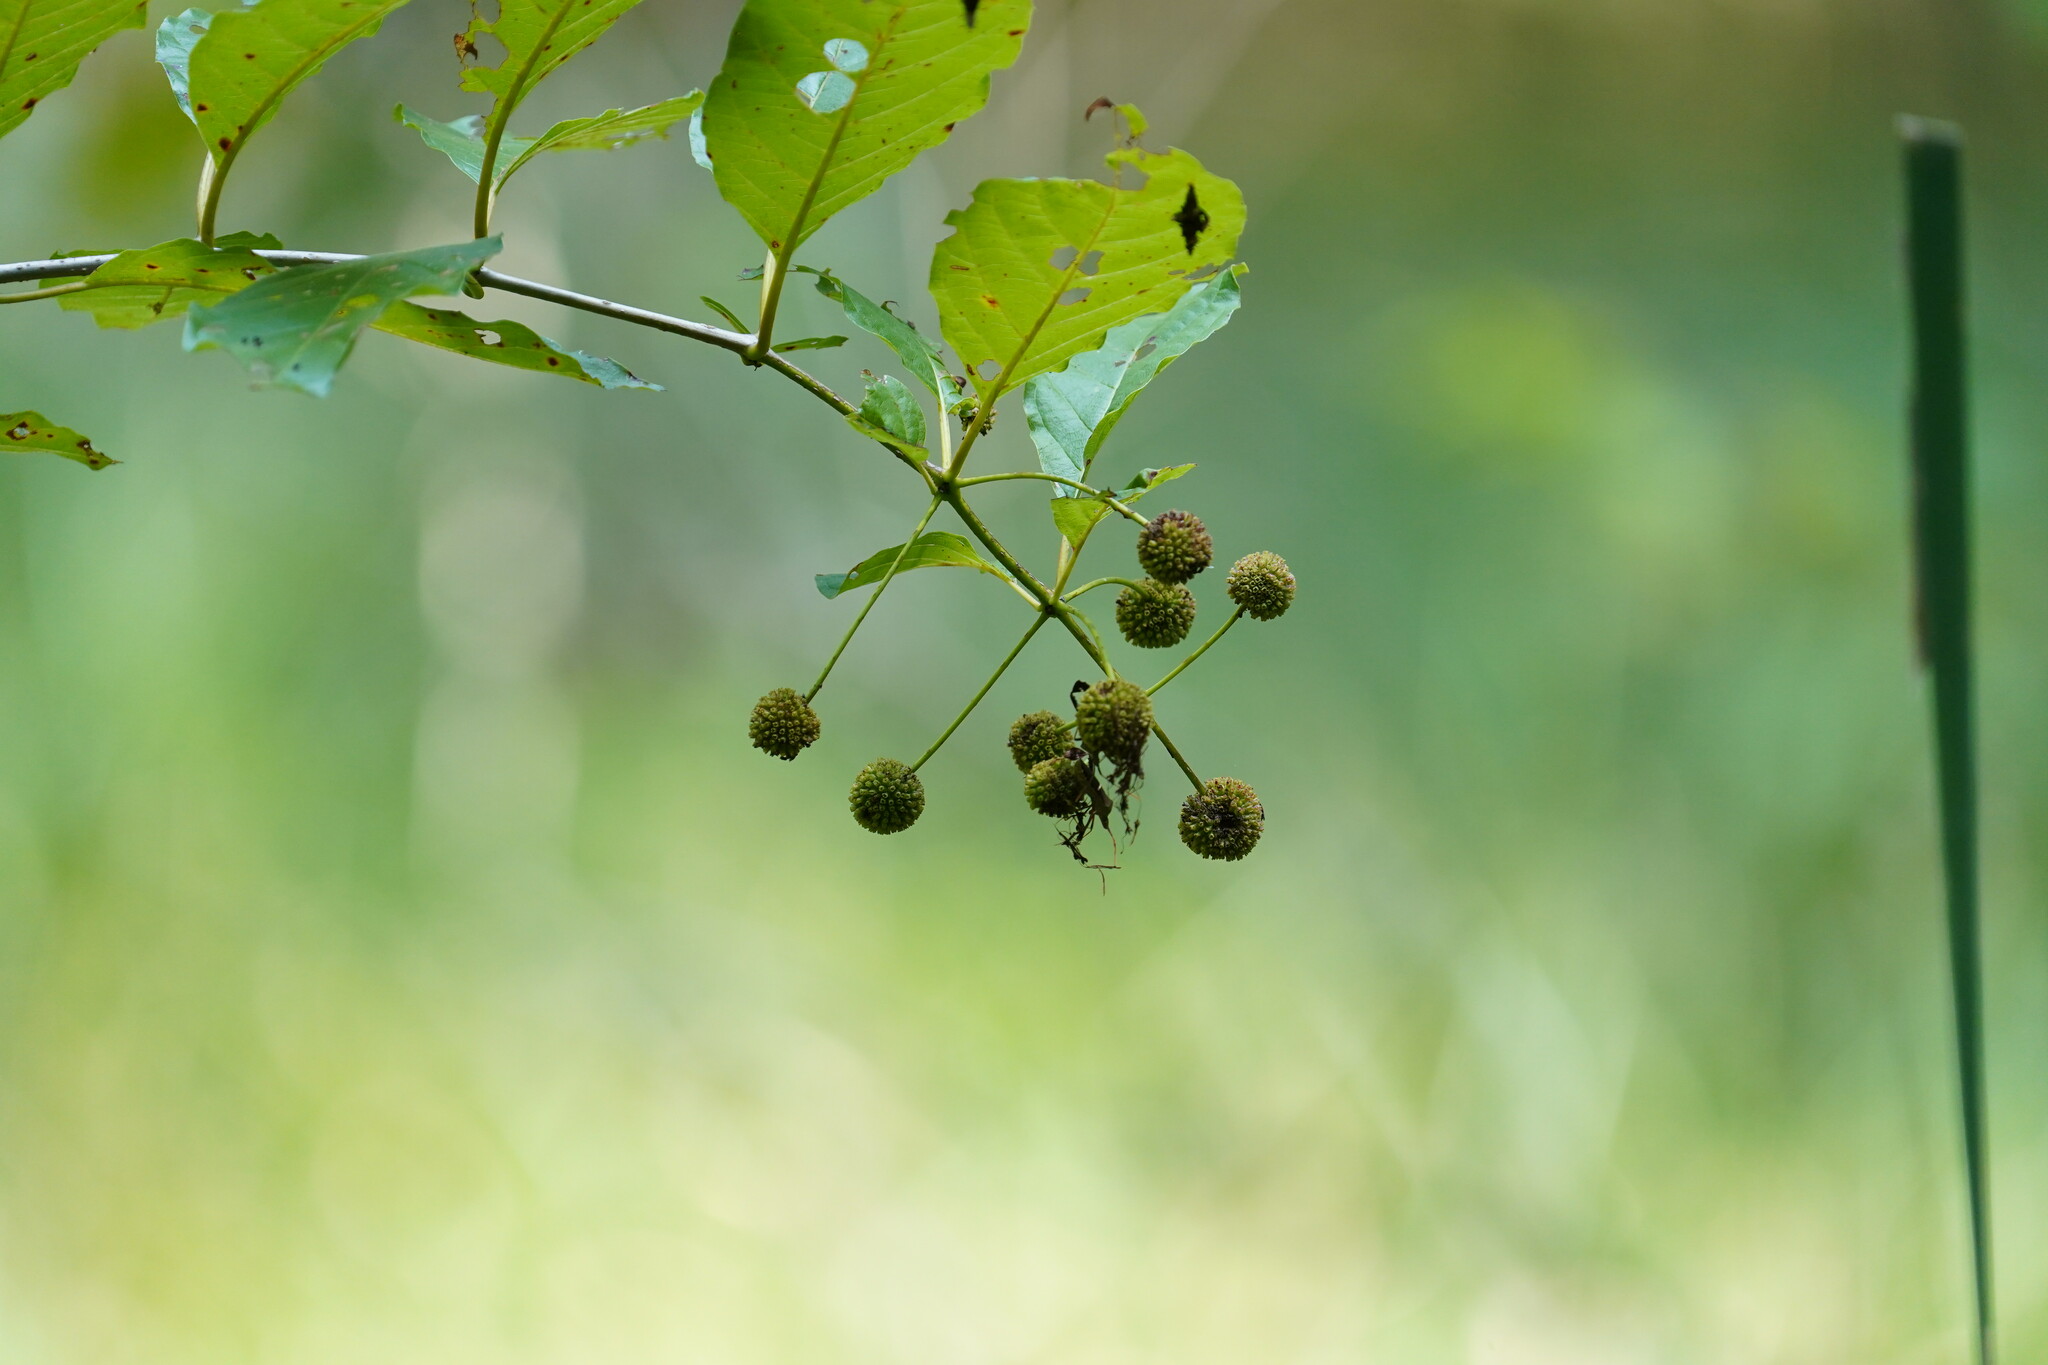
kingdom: Plantae
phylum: Tracheophyta
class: Magnoliopsida
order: Gentianales
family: Rubiaceae
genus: Cephalanthus
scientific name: Cephalanthus occidentalis
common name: Button-willow
